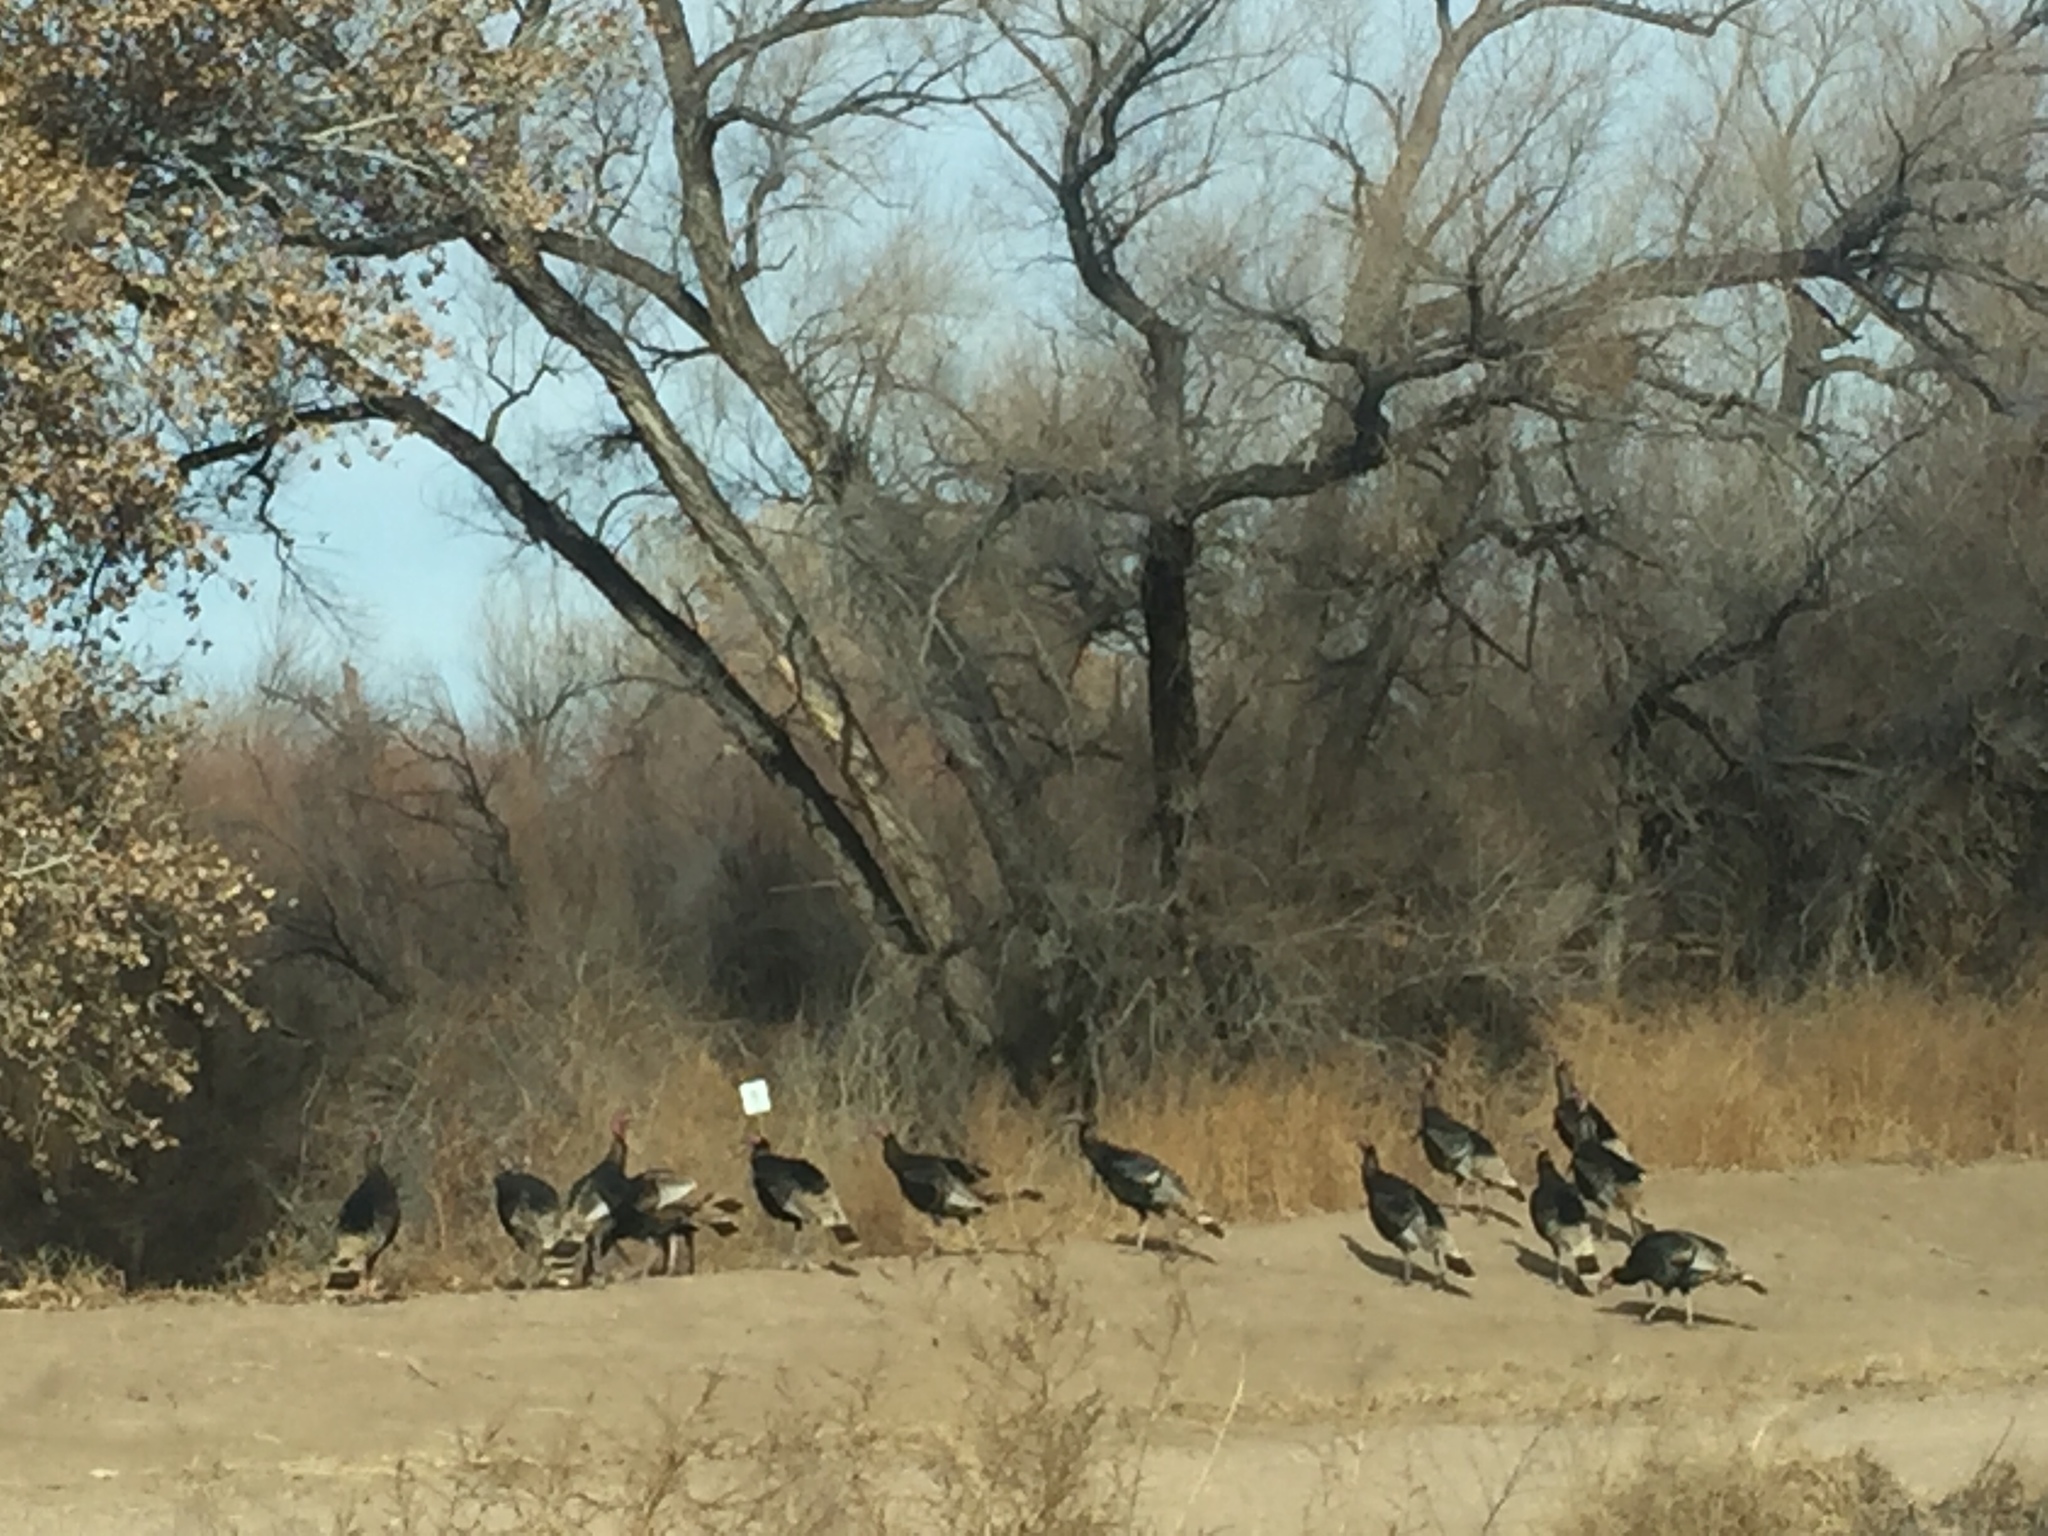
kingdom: Animalia
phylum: Chordata
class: Aves
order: Galliformes
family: Phasianidae
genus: Meleagris
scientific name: Meleagris gallopavo
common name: Wild turkey
